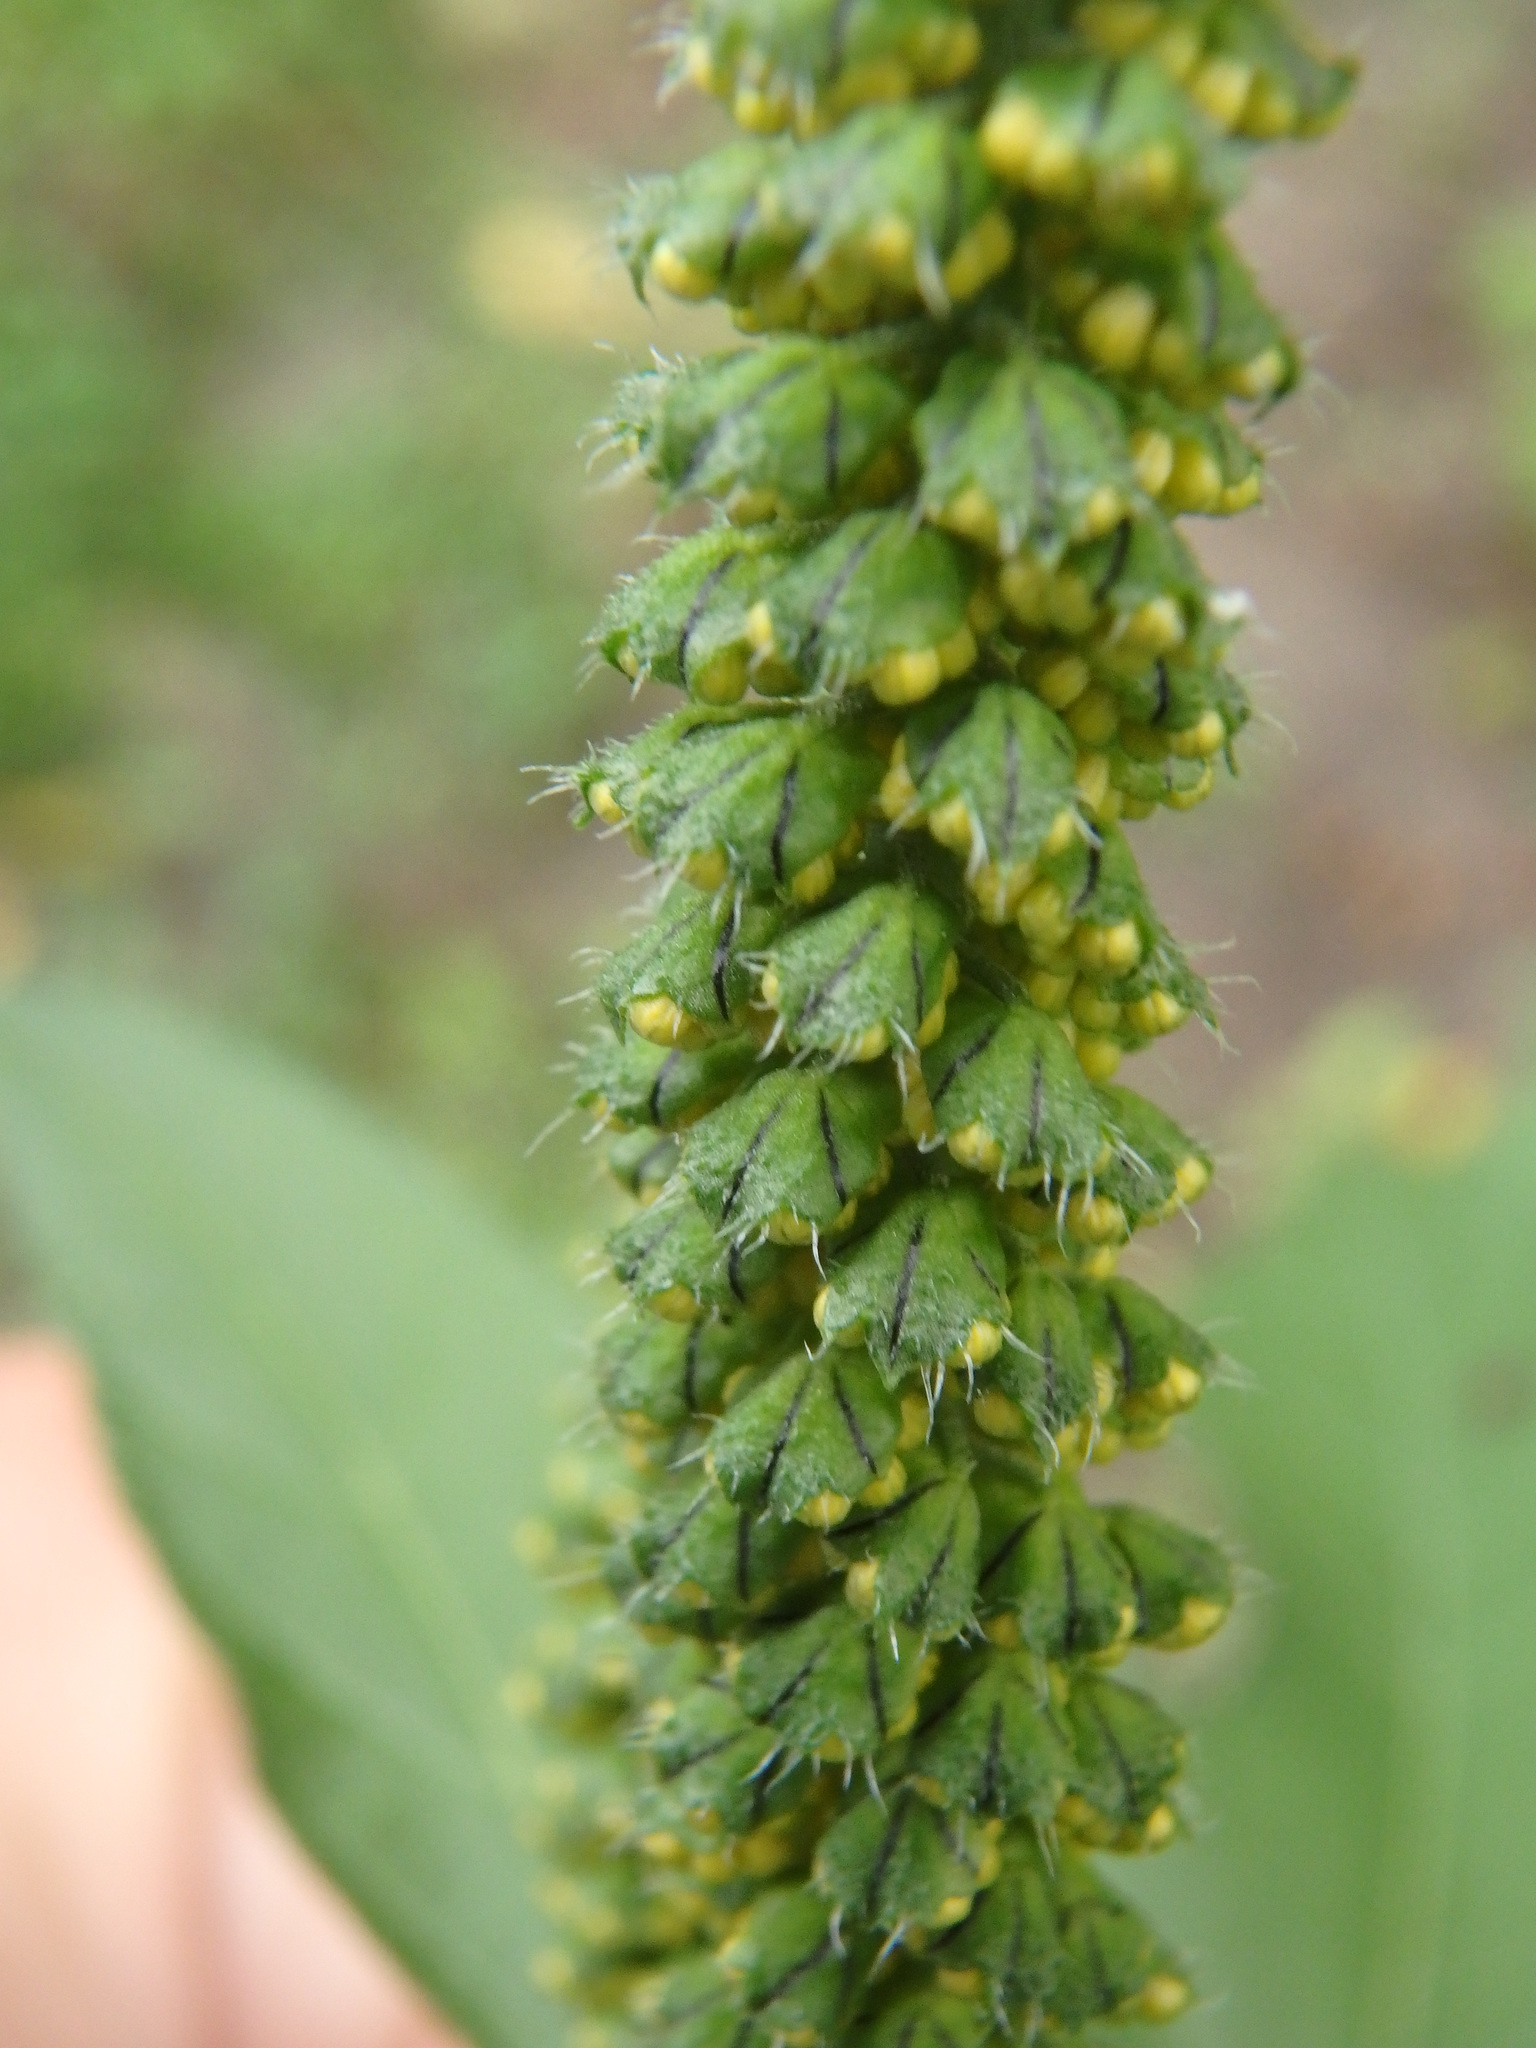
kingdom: Plantae
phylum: Tracheophyta
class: Magnoliopsida
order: Asterales
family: Asteraceae
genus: Ambrosia
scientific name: Ambrosia trifida
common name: Giant ragweed
